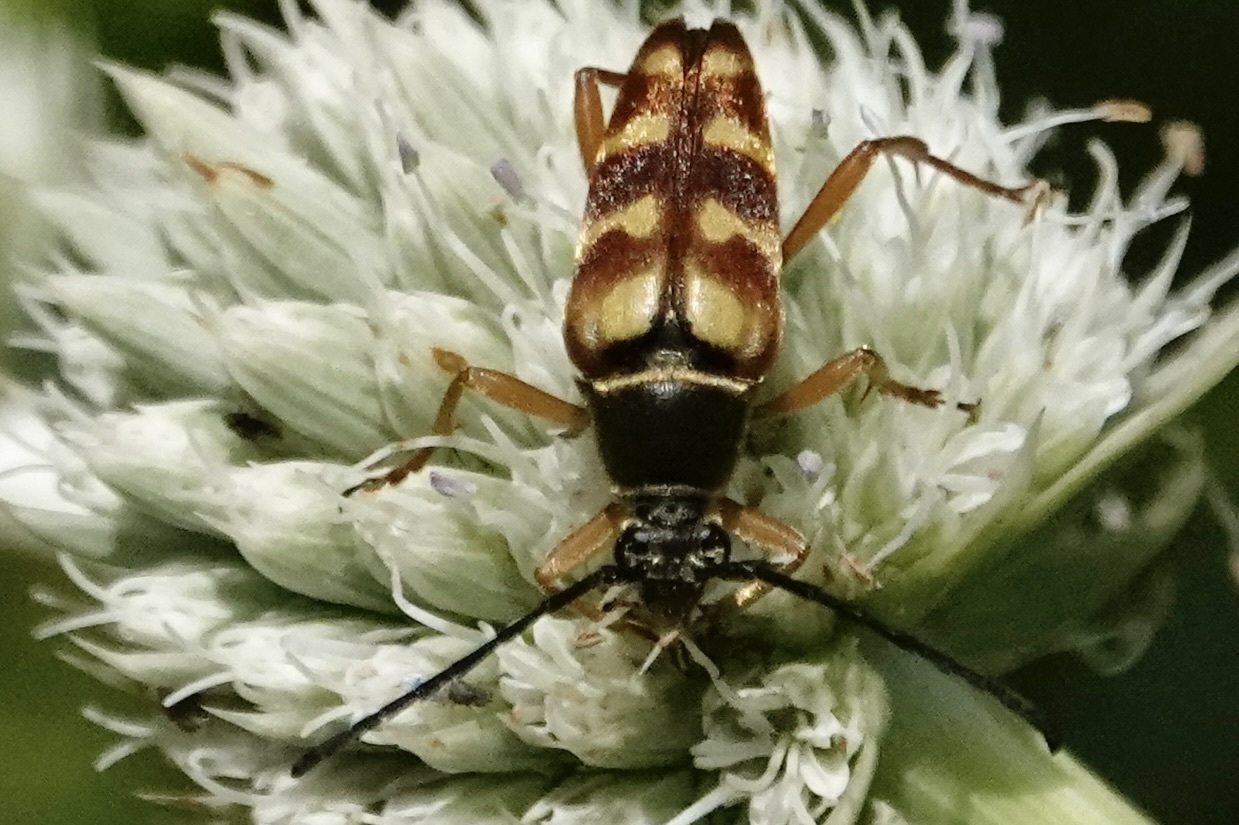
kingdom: Animalia
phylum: Arthropoda
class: Insecta
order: Coleoptera
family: Cerambycidae
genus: Typocerus
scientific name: Typocerus velutinus
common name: Banded longhorn beetle
